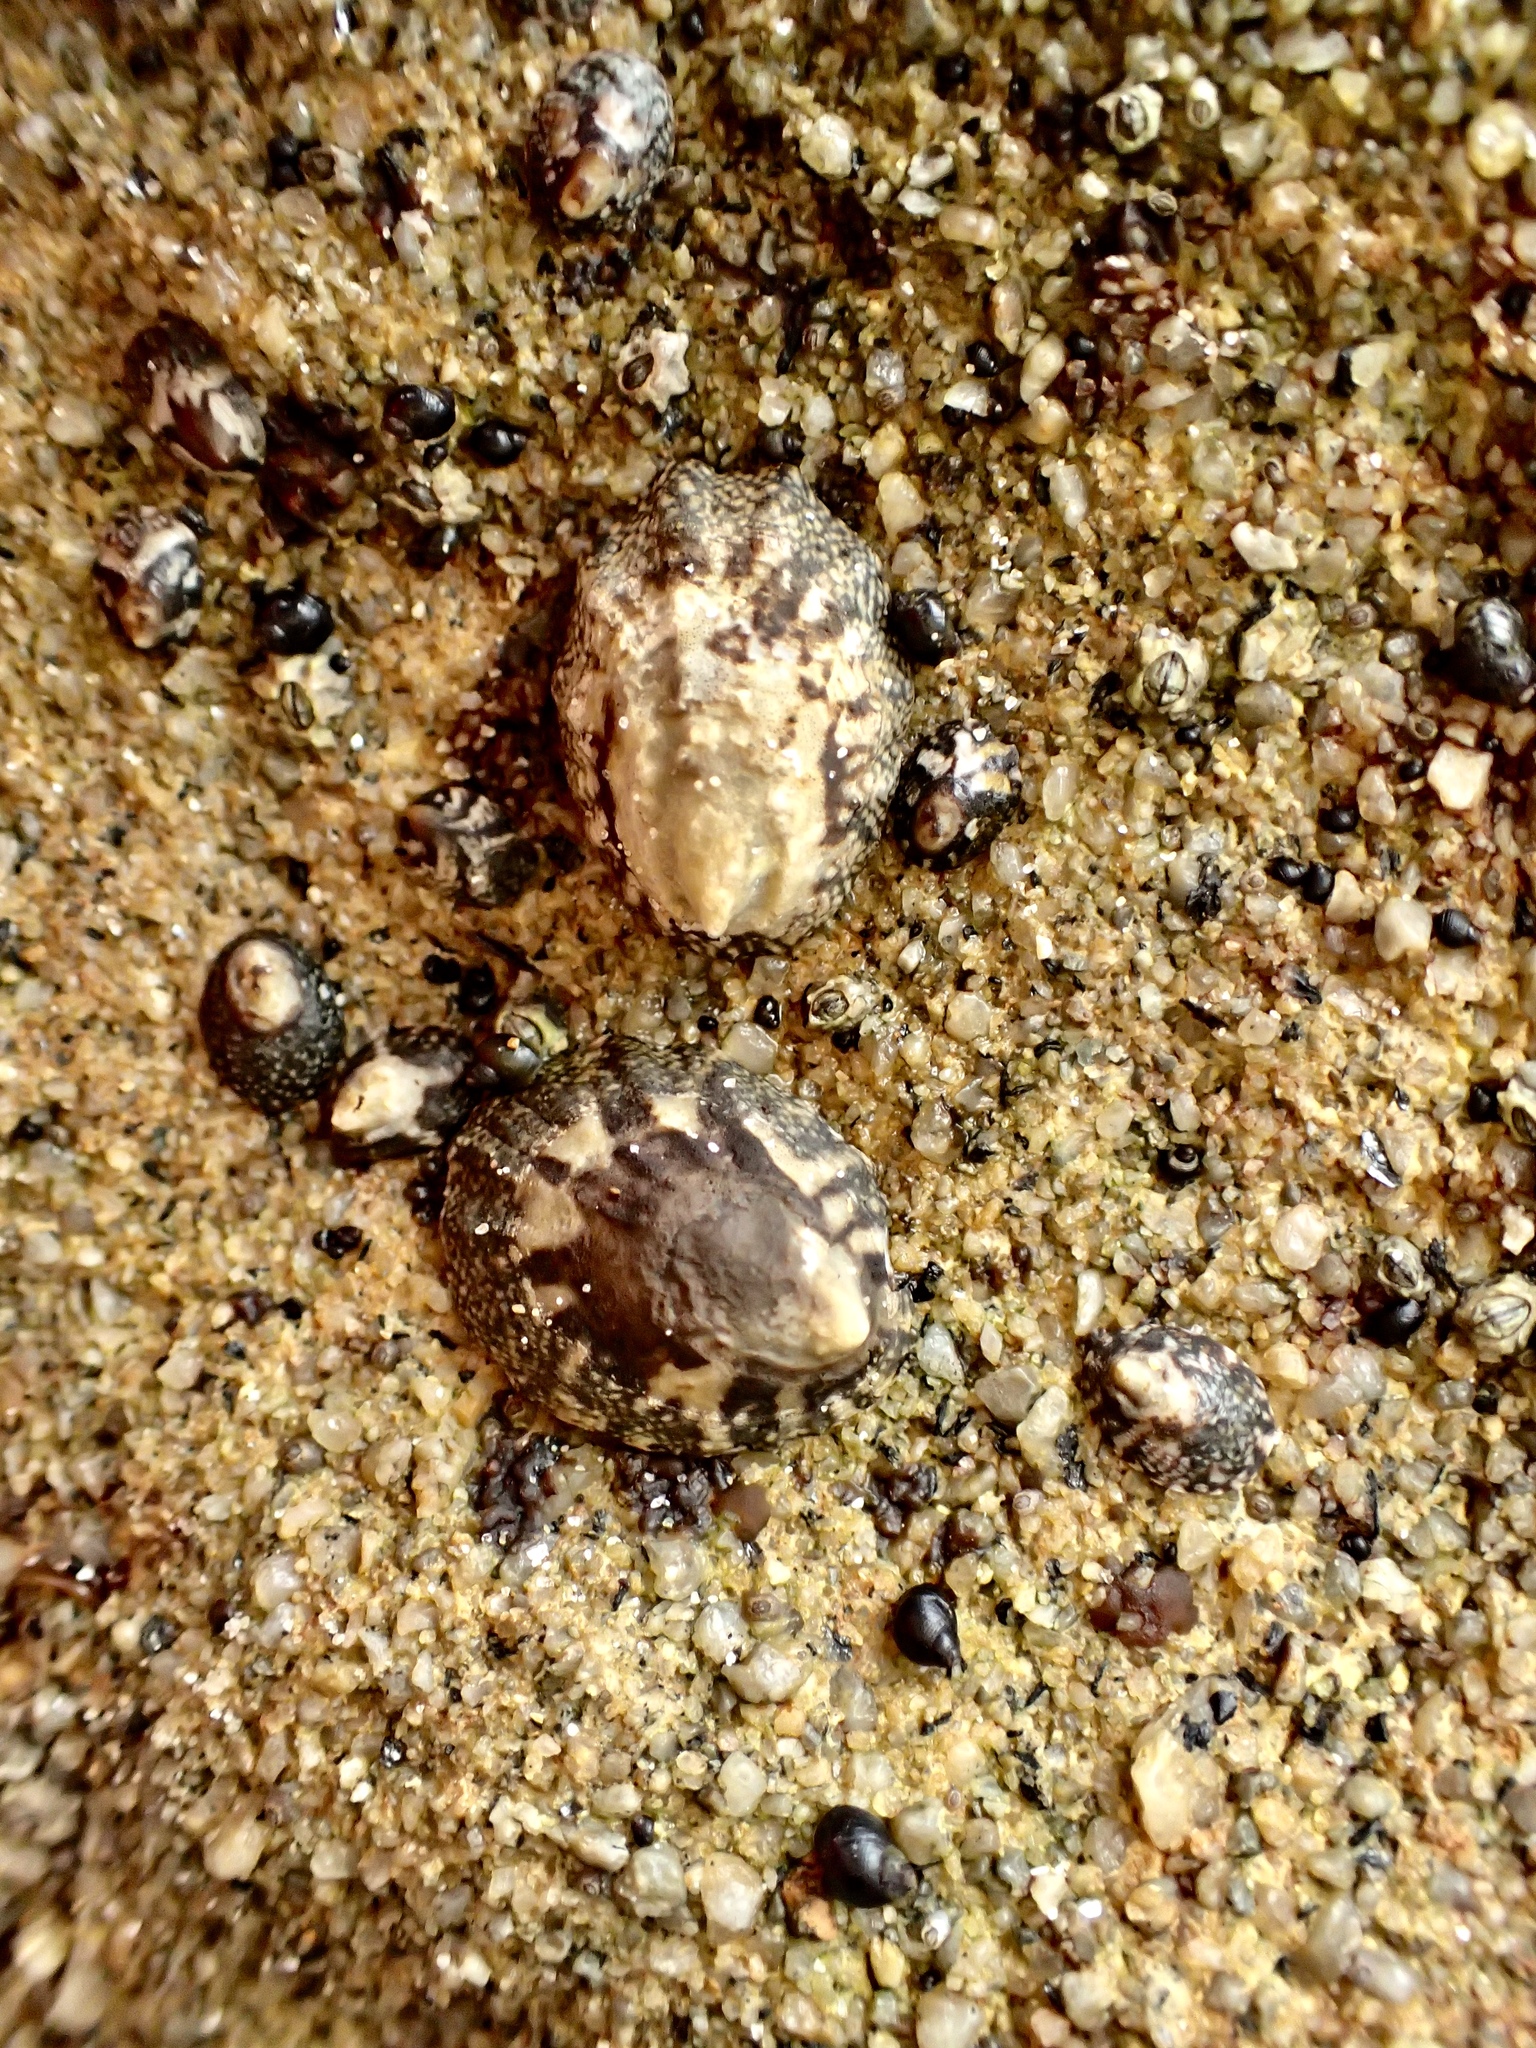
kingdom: Animalia
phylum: Mollusca
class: Gastropoda
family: Lottiidae
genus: Lottia
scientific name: Lottia digitalis
